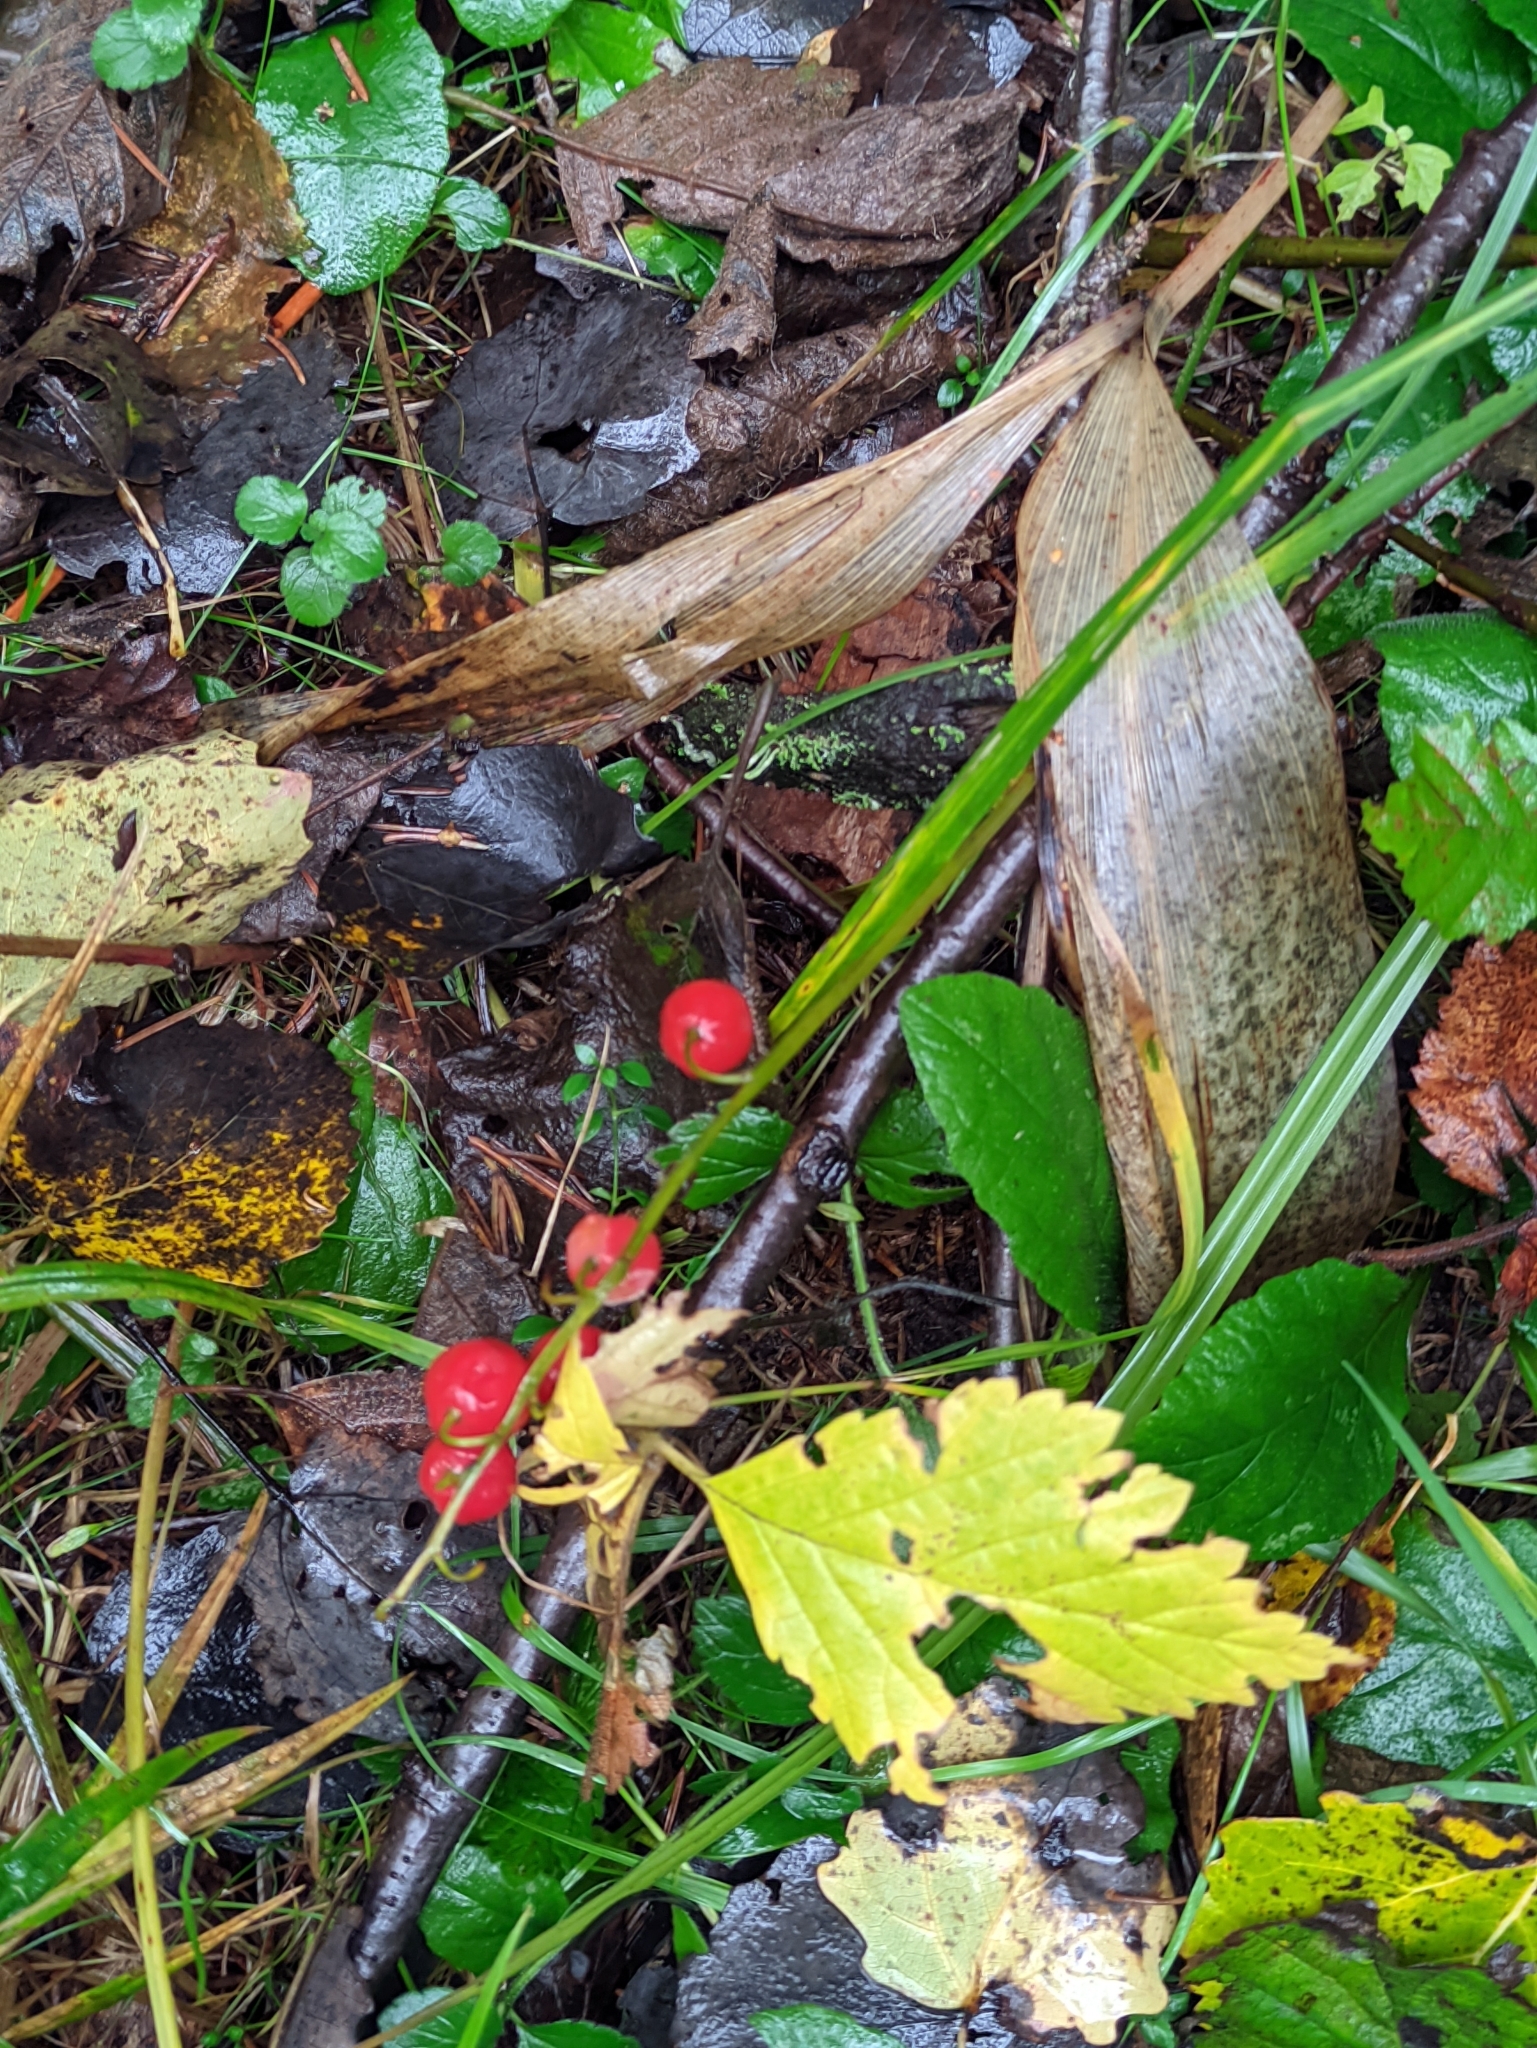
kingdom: Plantae
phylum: Tracheophyta
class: Liliopsida
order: Asparagales
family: Asparagaceae
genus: Convallaria
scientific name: Convallaria majalis
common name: Lily-of-the-valley
